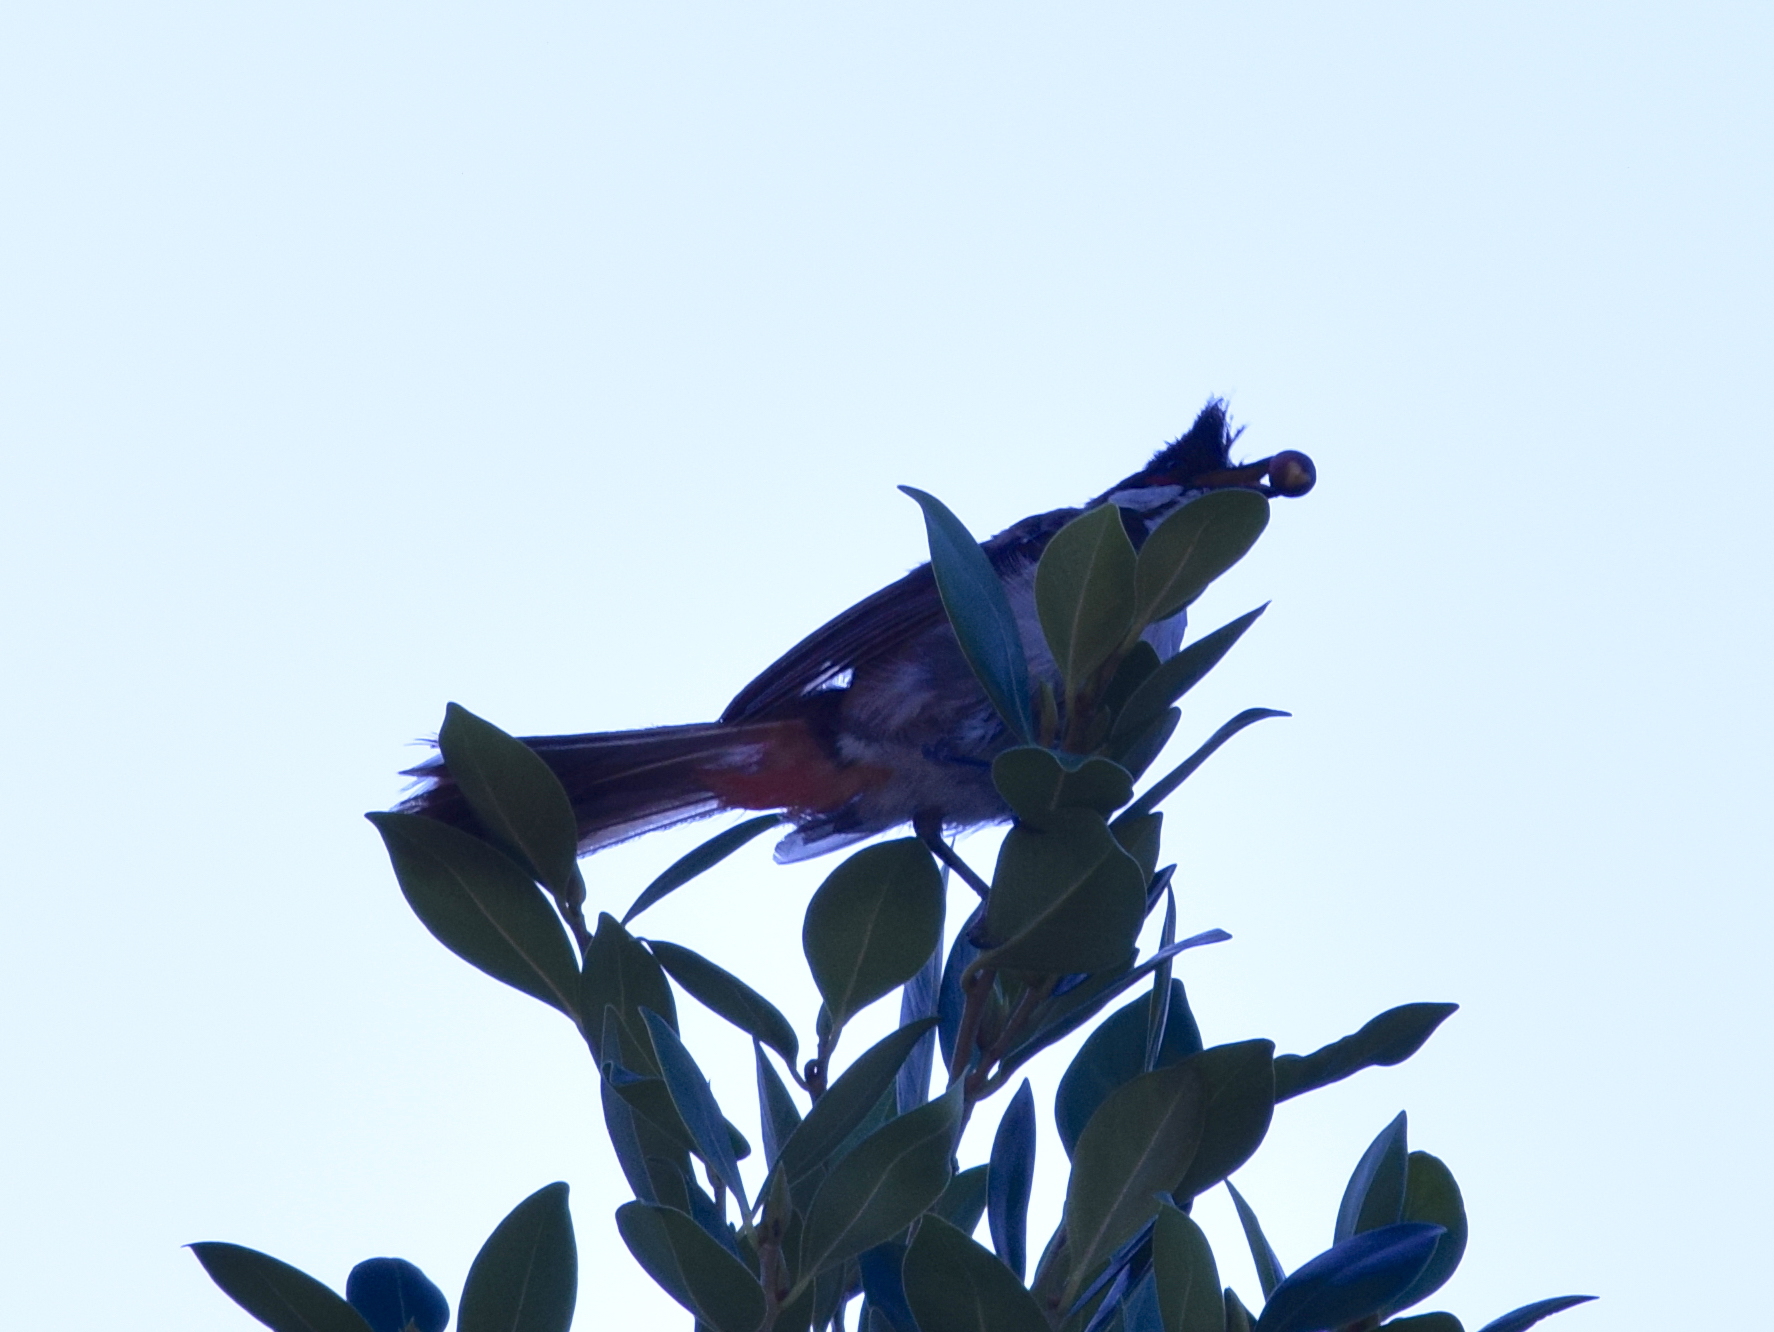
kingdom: Animalia
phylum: Chordata
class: Aves
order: Passeriformes
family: Pycnonotidae
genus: Pycnonotus
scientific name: Pycnonotus jocosus
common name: Red-whiskered bulbul
